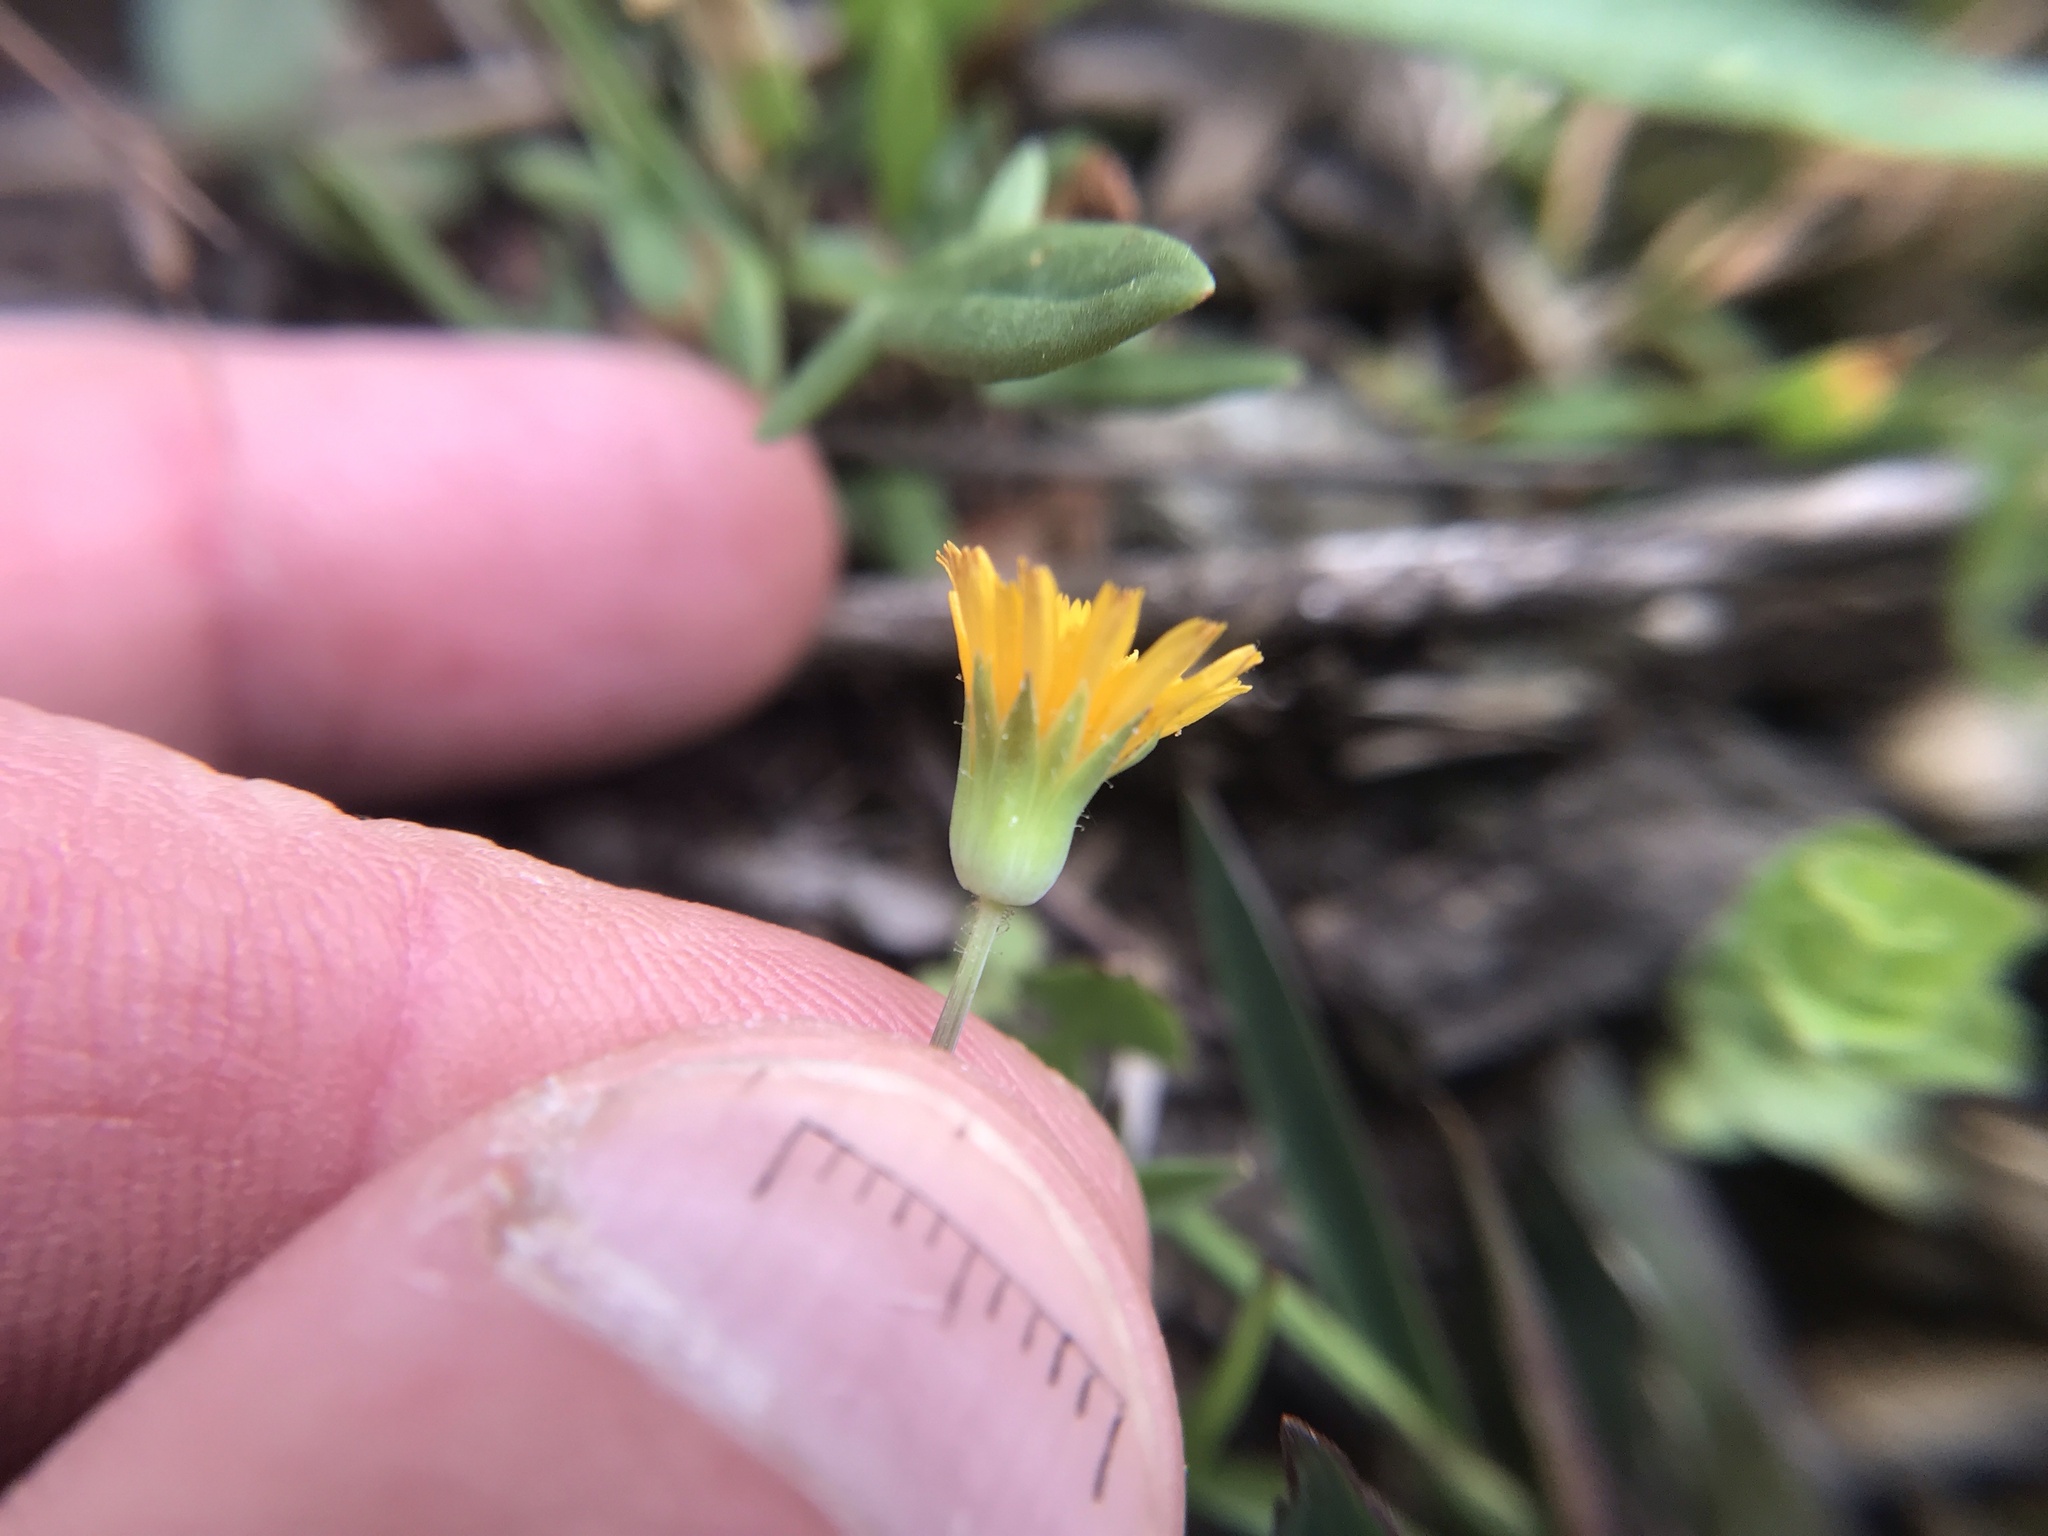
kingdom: Plantae
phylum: Tracheophyta
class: Magnoliopsida
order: Asterales
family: Asteraceae
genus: Krigia
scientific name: Krigia virginica
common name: Virginia dwarf-dandelion
